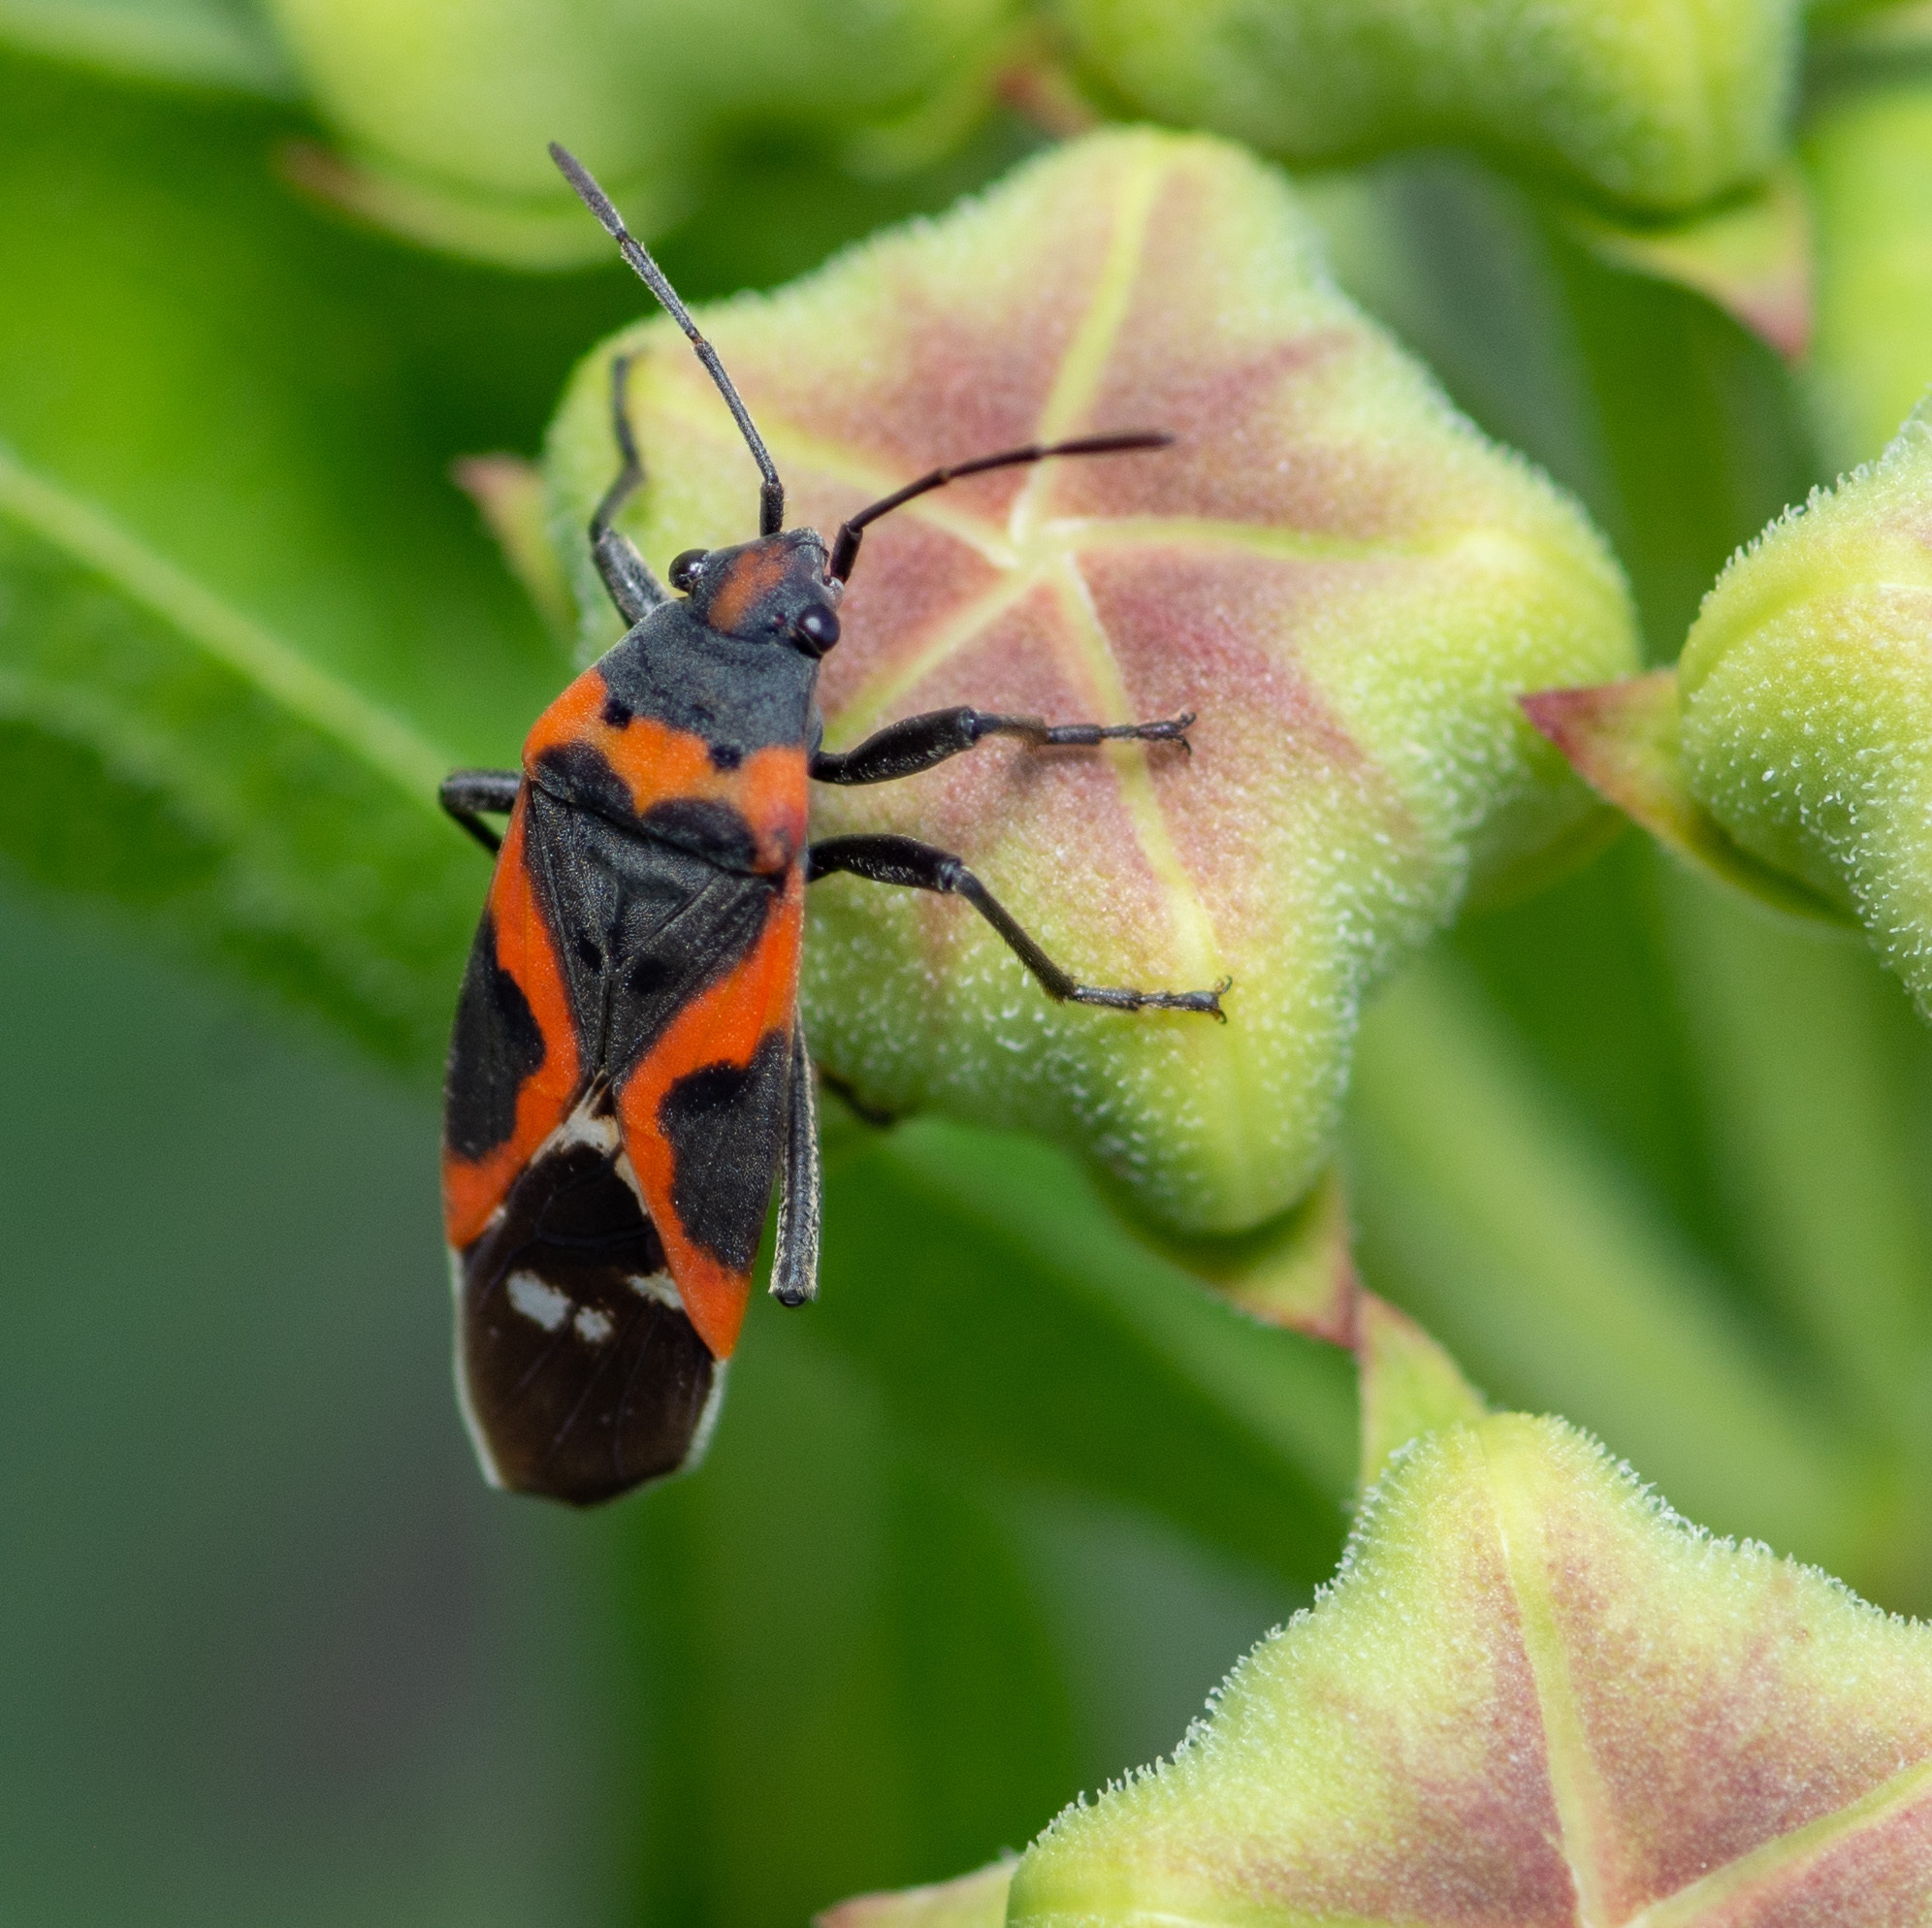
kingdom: Animalia
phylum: Arthropoda
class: Insecta
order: Hemiptera
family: Lygaeidae
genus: Lygaeus
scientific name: Lygaeus kalmii
